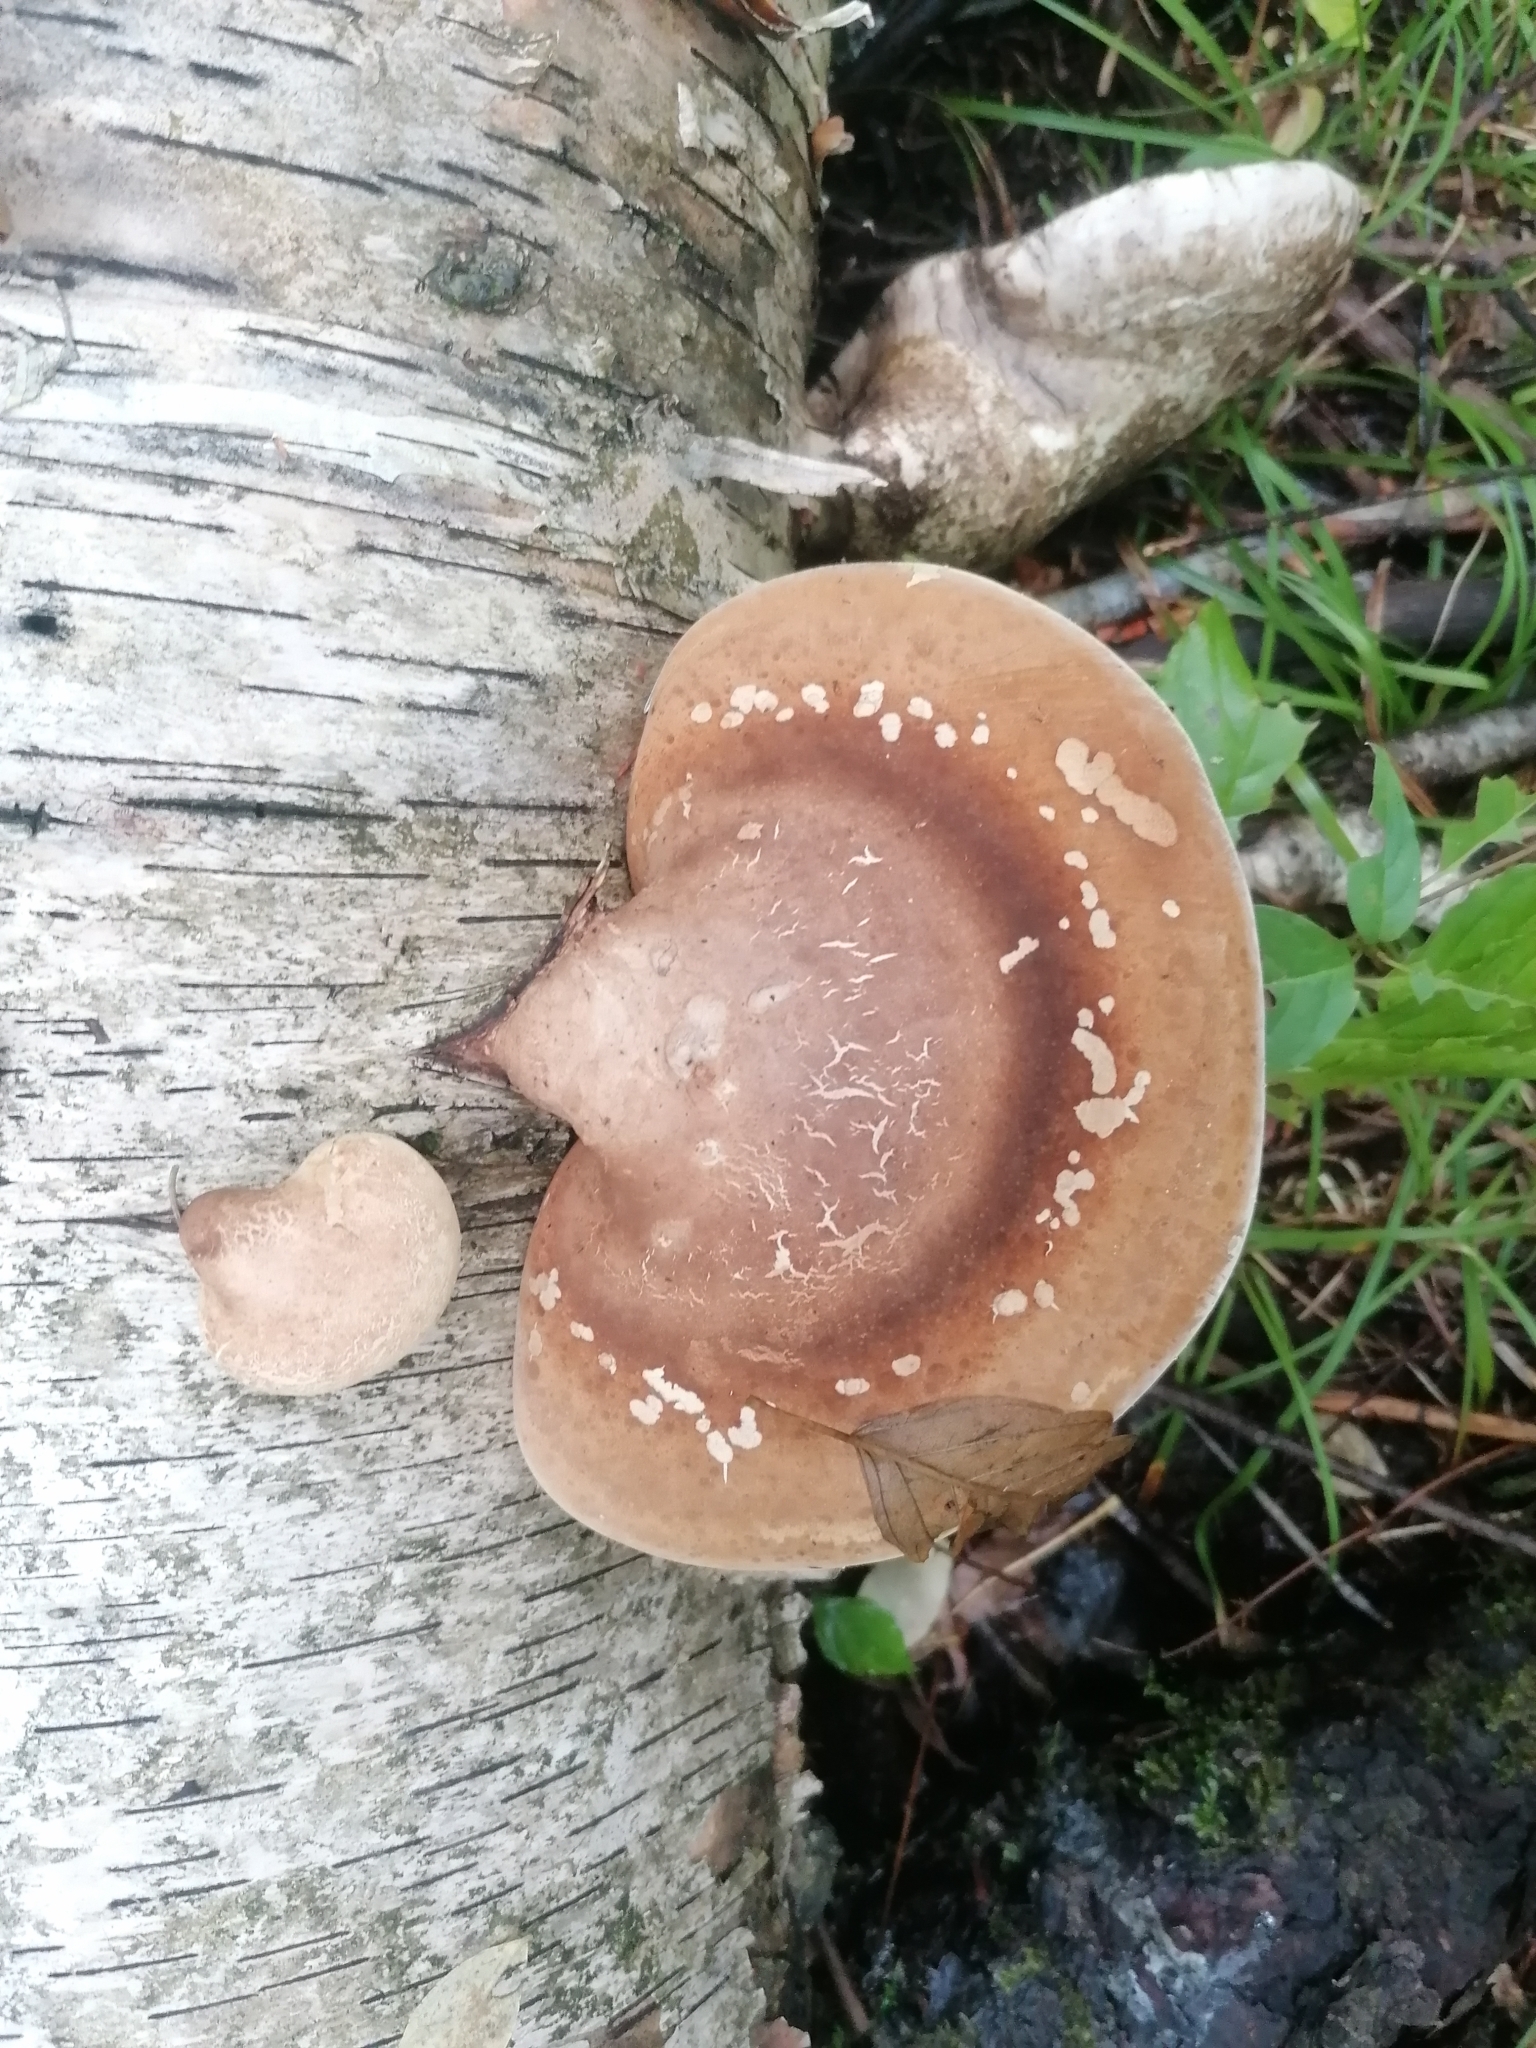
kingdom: Fungi
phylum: Basidiomycota
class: Agaricomycetes
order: Polyporales
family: Fomitopsidaceae
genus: Fomitopsis
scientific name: Fomitopsis betulina
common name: Birch polypore
